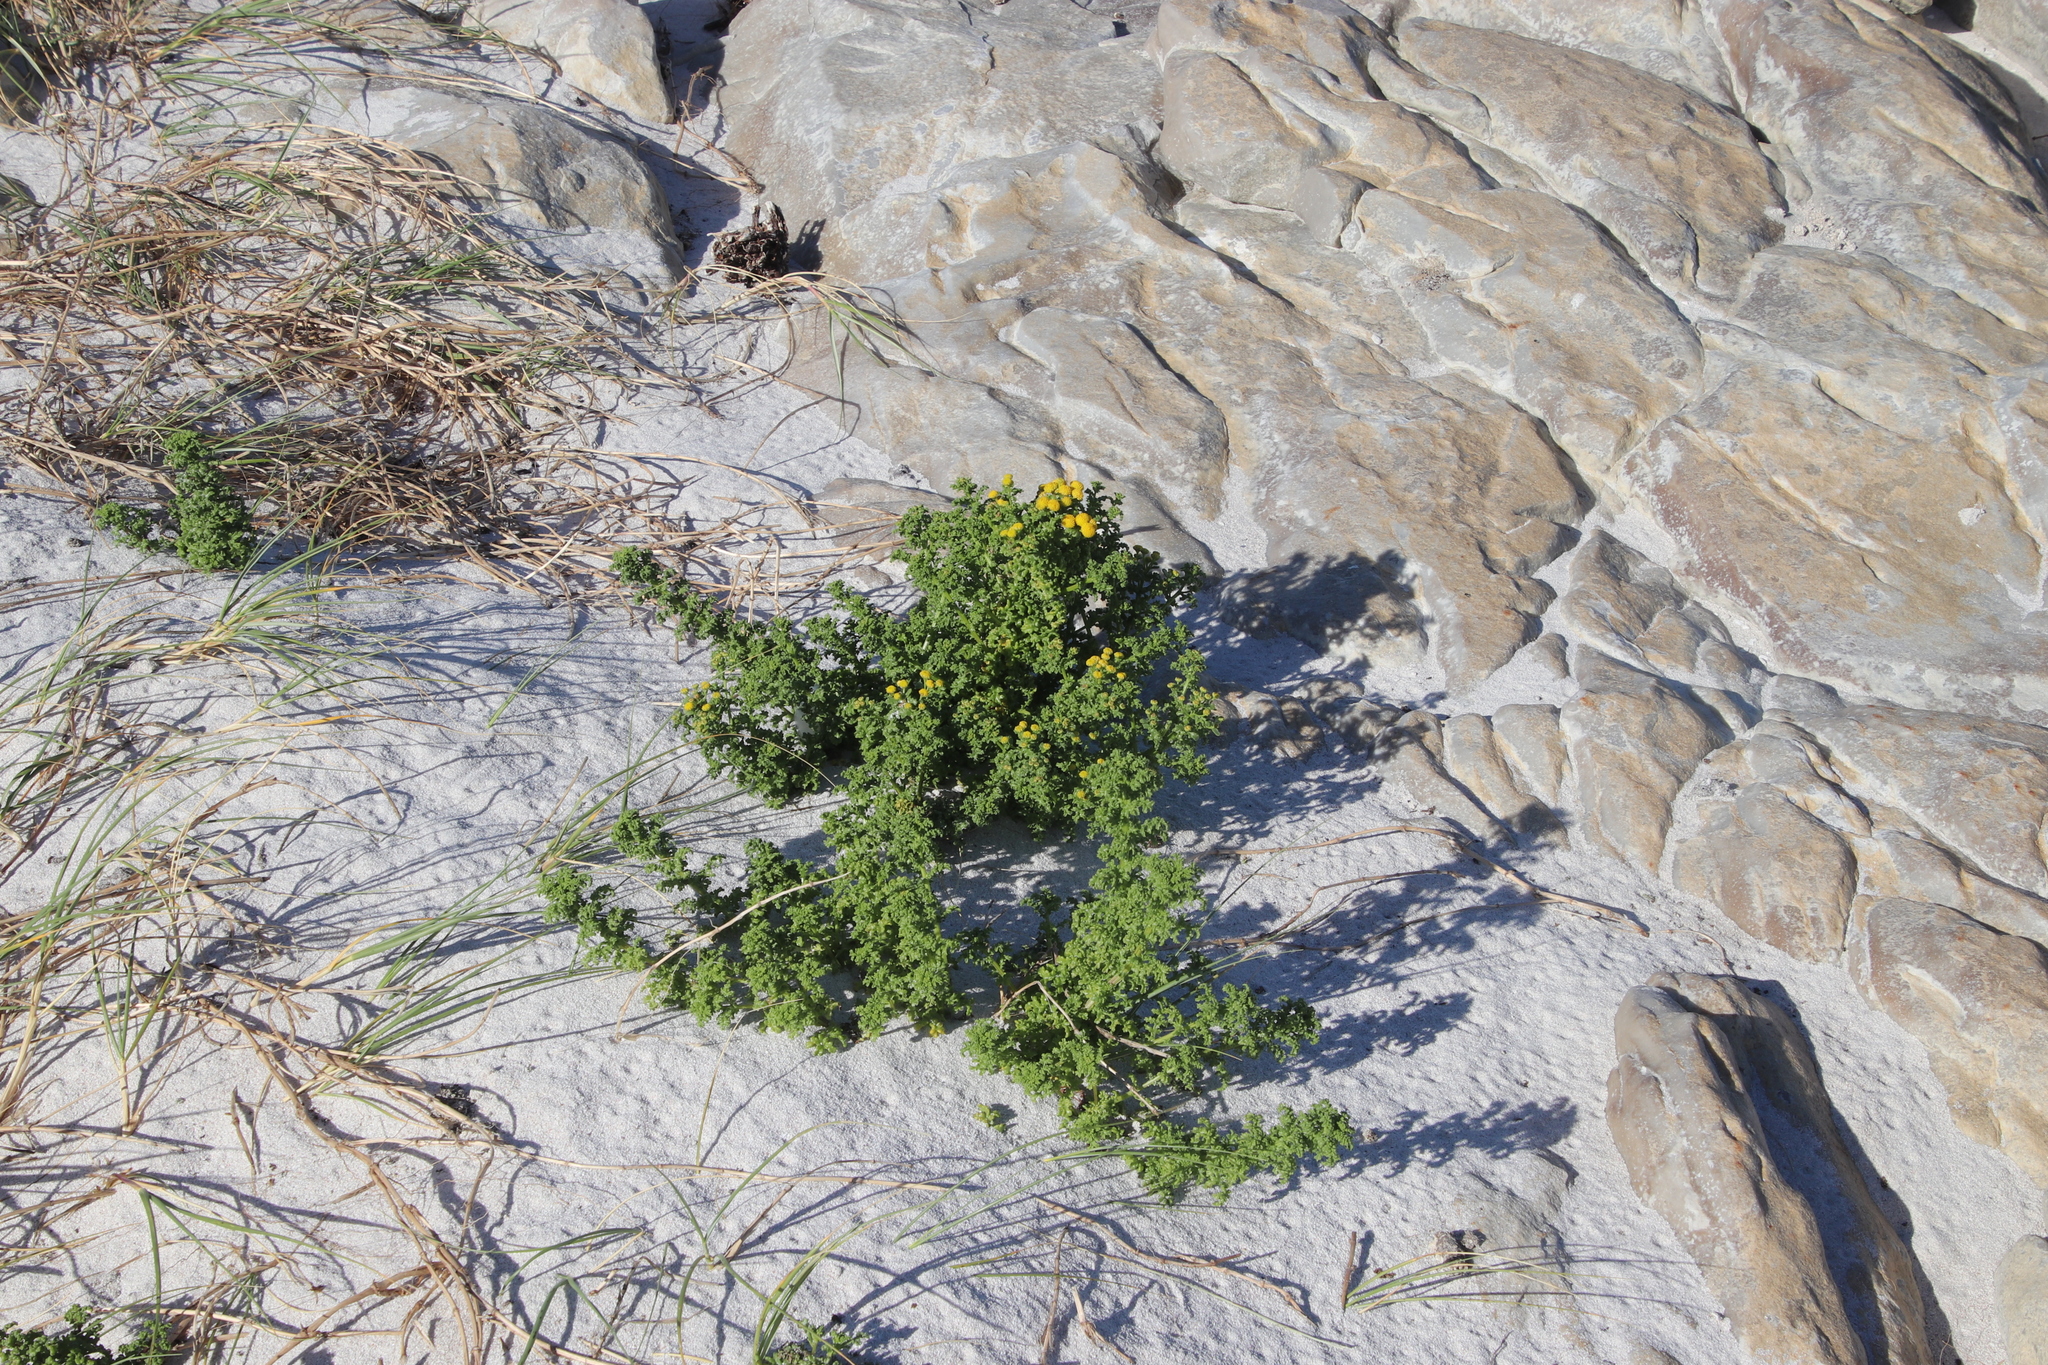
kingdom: Plantae
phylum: Tracheophyta
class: Magnoliopsida
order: Asterales
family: Asteraceae
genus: Oncosiphon
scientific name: Oncosiphon sabulosus
